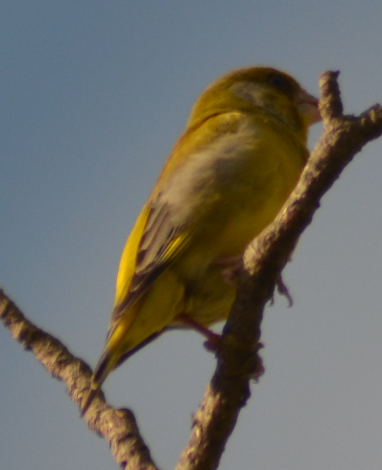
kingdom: Plantae
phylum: Tracheophyta
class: Liliopsida
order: Poales
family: Poaceae
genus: Chloris
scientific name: Chloris chloris
